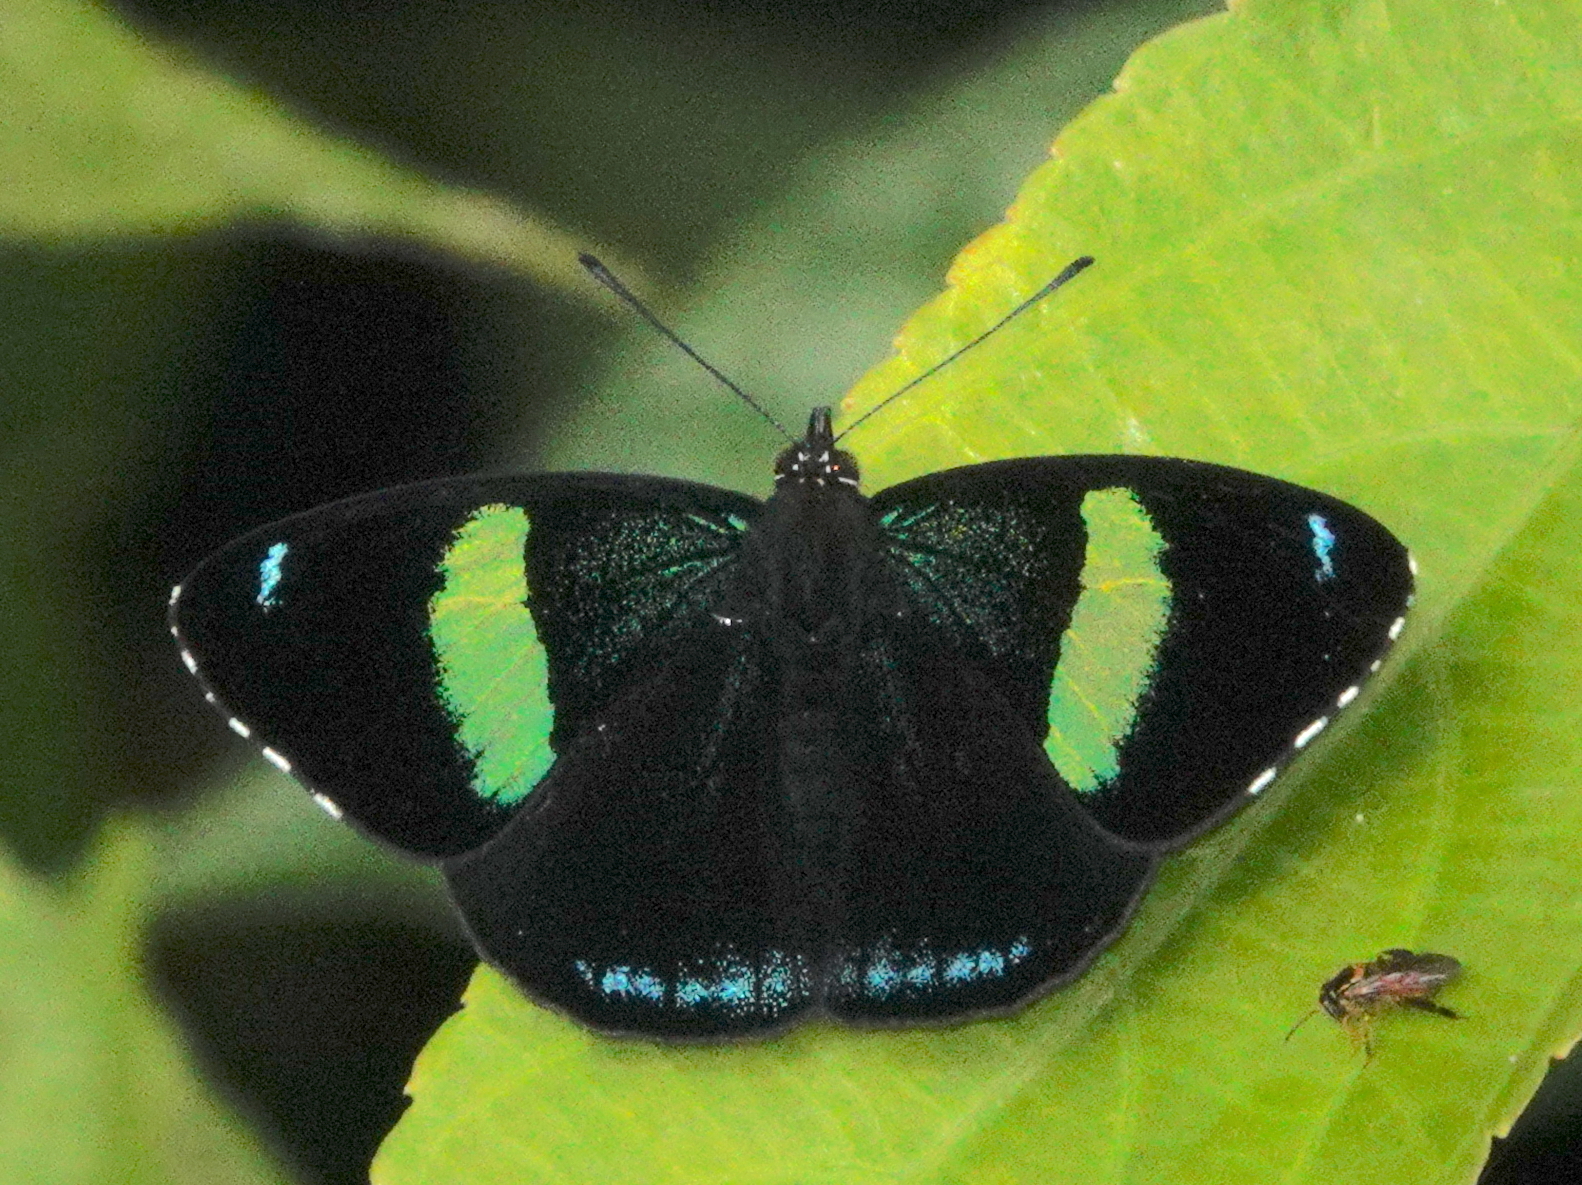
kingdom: Animalia
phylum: Arthropoda
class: Insecta
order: Lepidoptera
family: Nymphalidae
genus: Perisama
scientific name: Perisama oppelii
